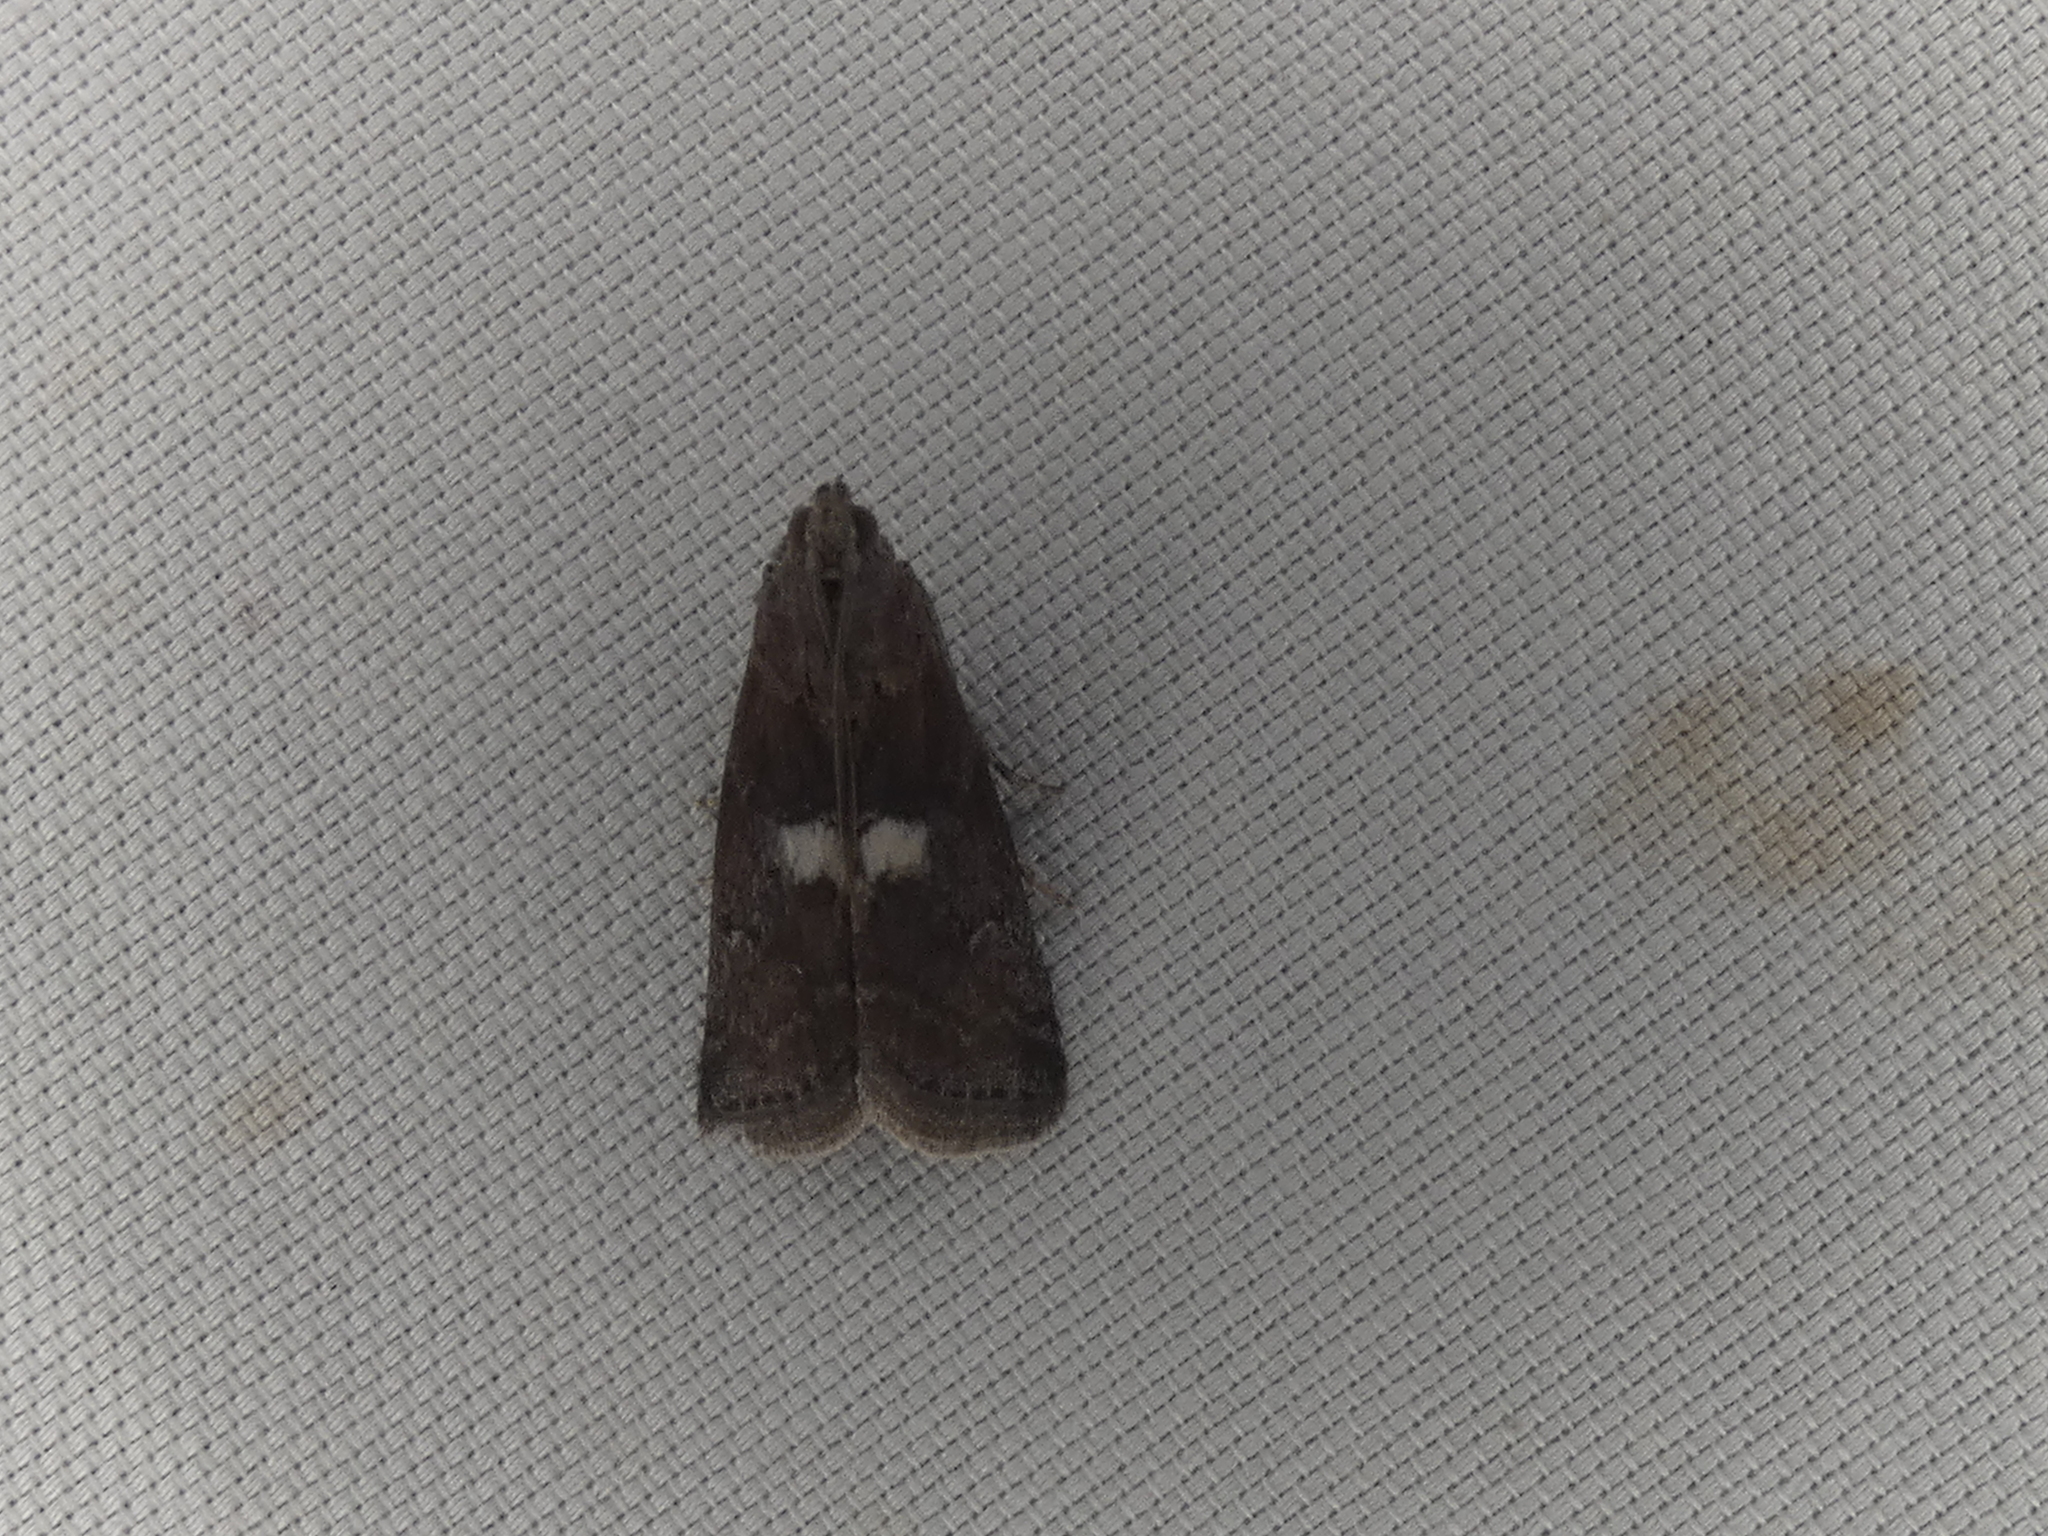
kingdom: Animalia
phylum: Arthropoda
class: Insecta
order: Lepidoptera
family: Pyralidae
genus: Salebriaria
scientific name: Salebriaria engeli
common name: Engel's salebriaria moth
